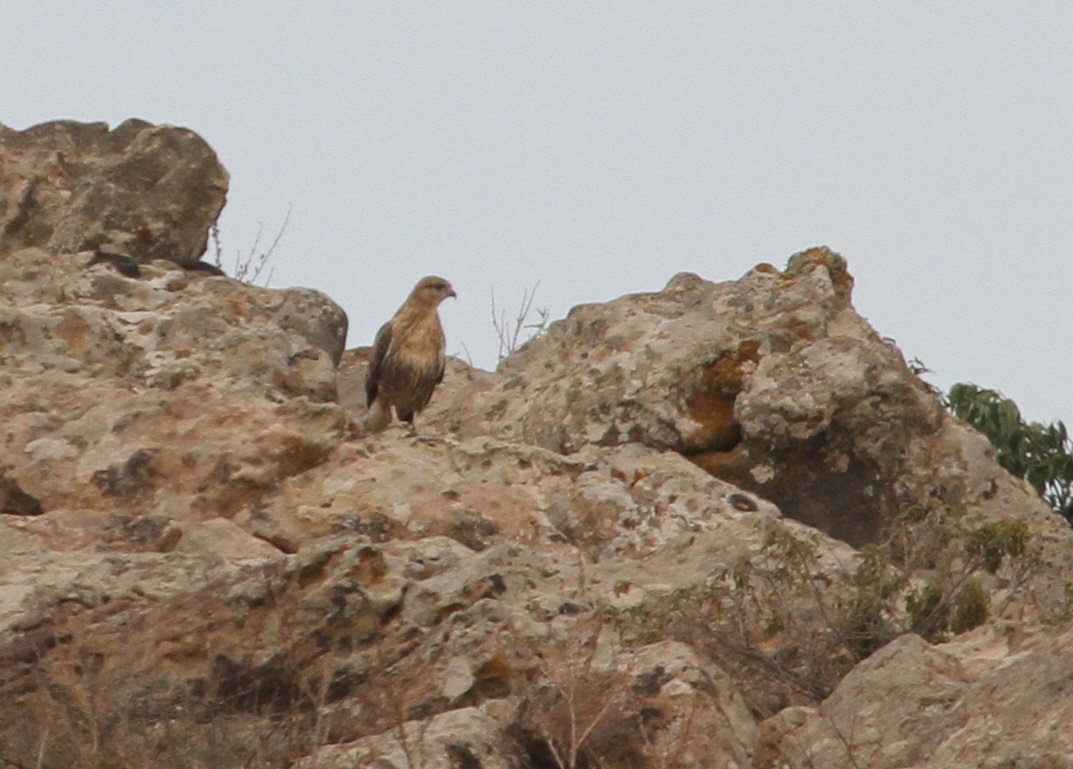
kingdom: Animalia
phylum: Chordata
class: Aves
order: Accipitriformes
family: Accipitridae
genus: Buteo
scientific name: Buteo rufinus
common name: Long-legged buzzard
